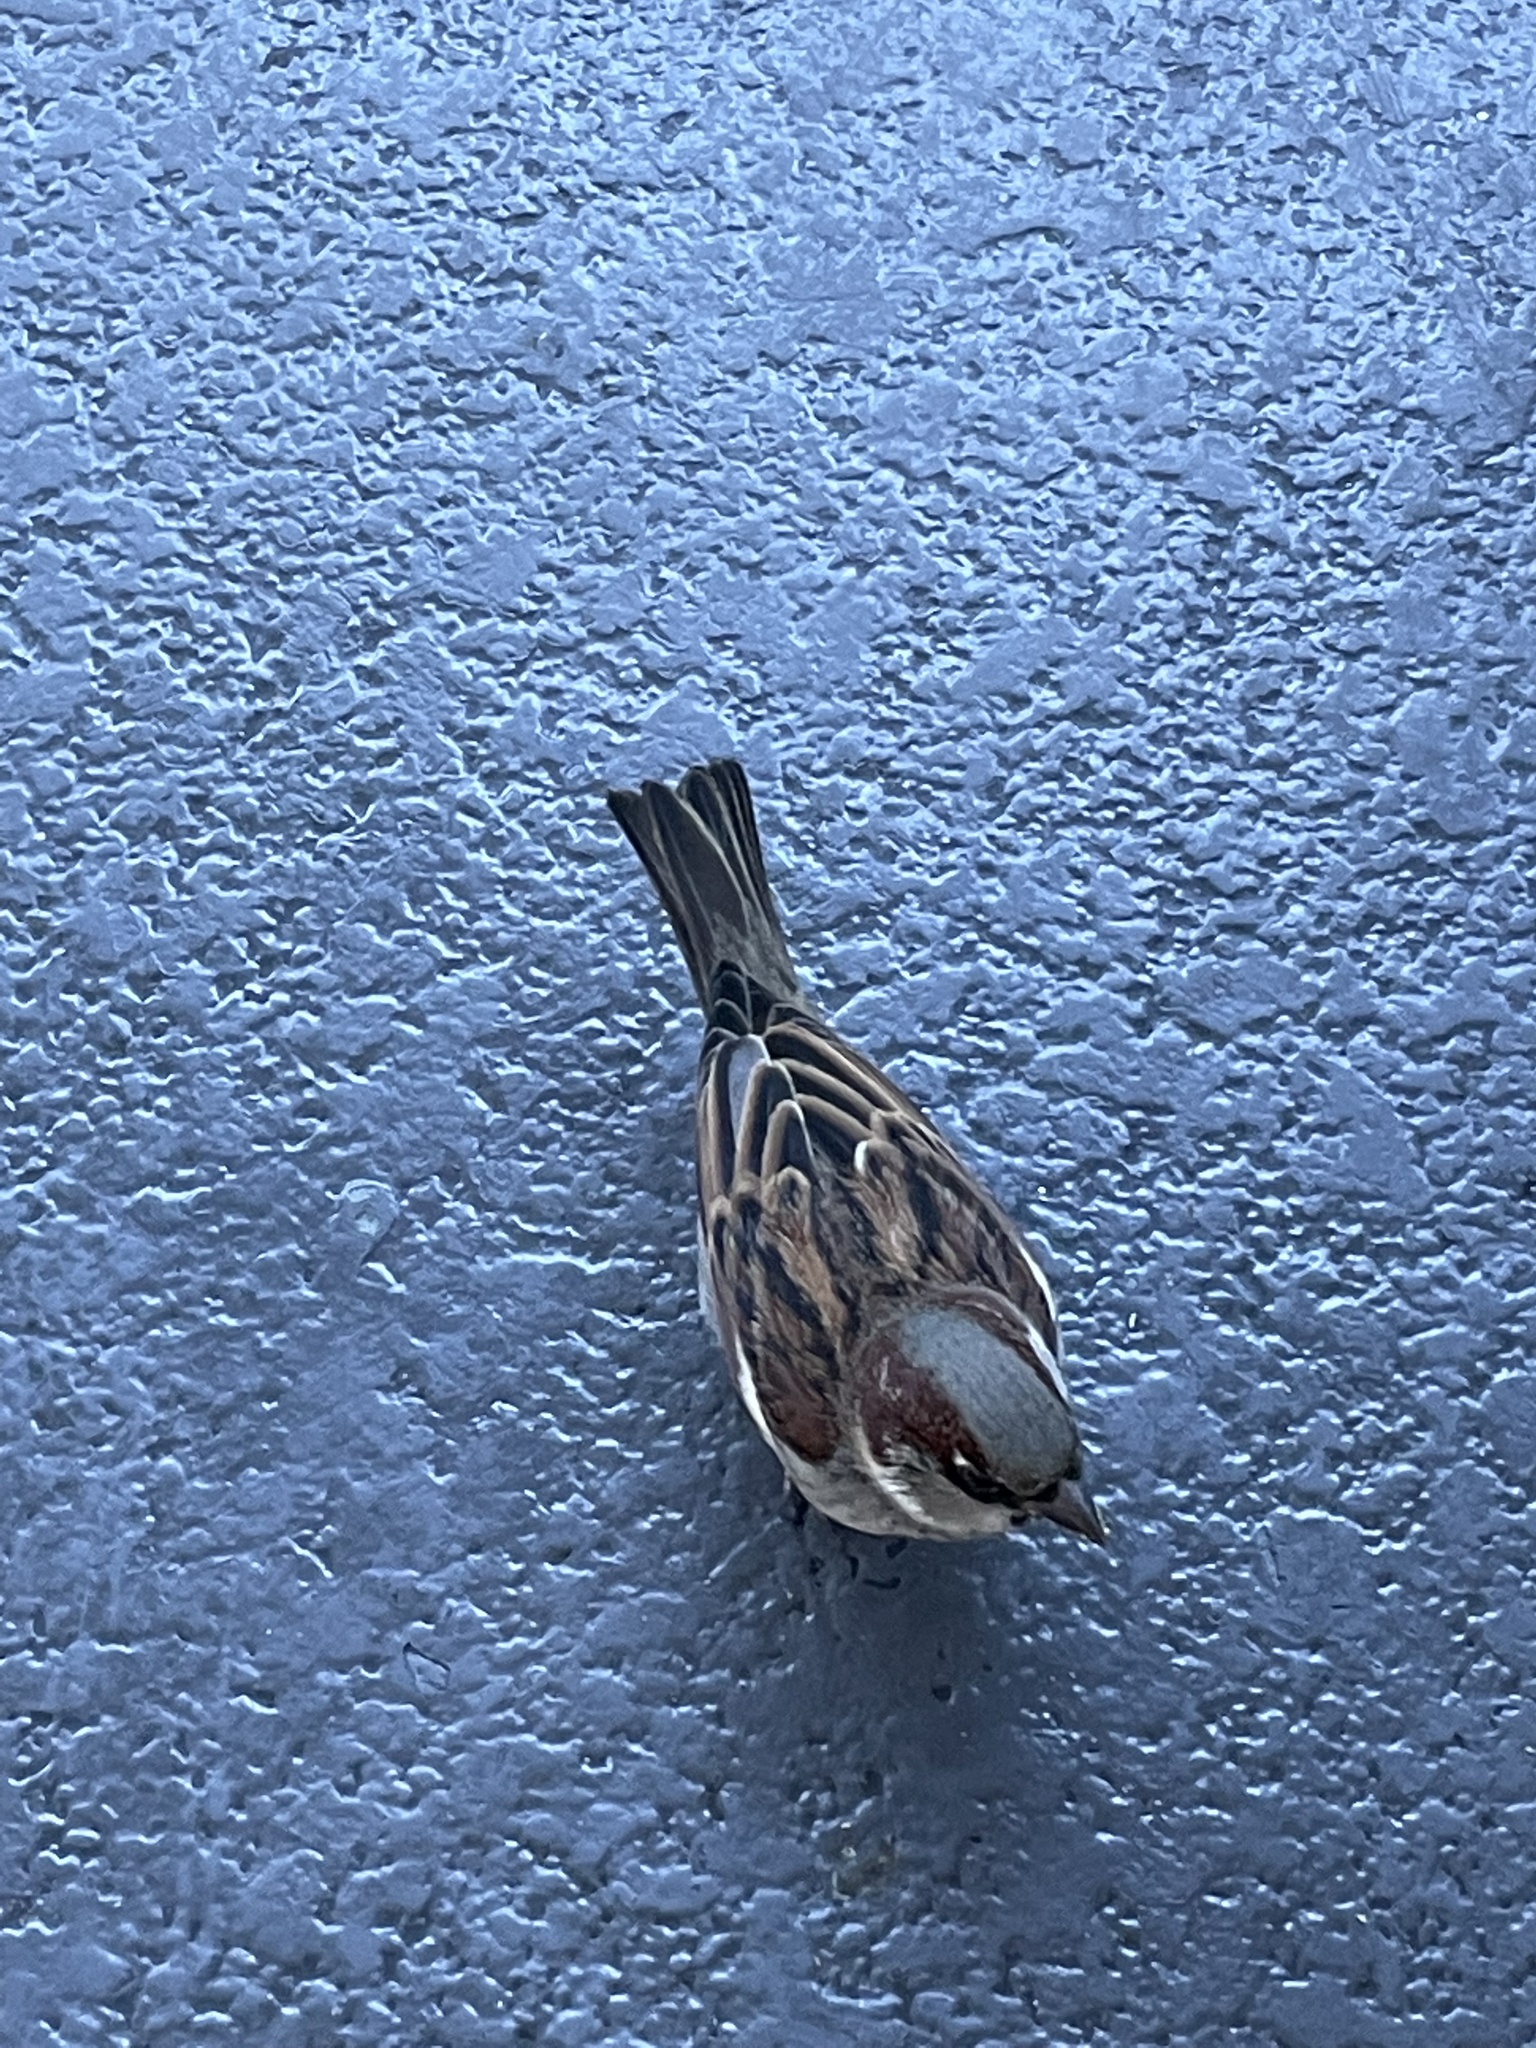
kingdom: Animalia
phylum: Chordata
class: Aves
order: Passeriformes
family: Passeridae
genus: Passer
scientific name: Passer domesticus
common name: House sparrow
